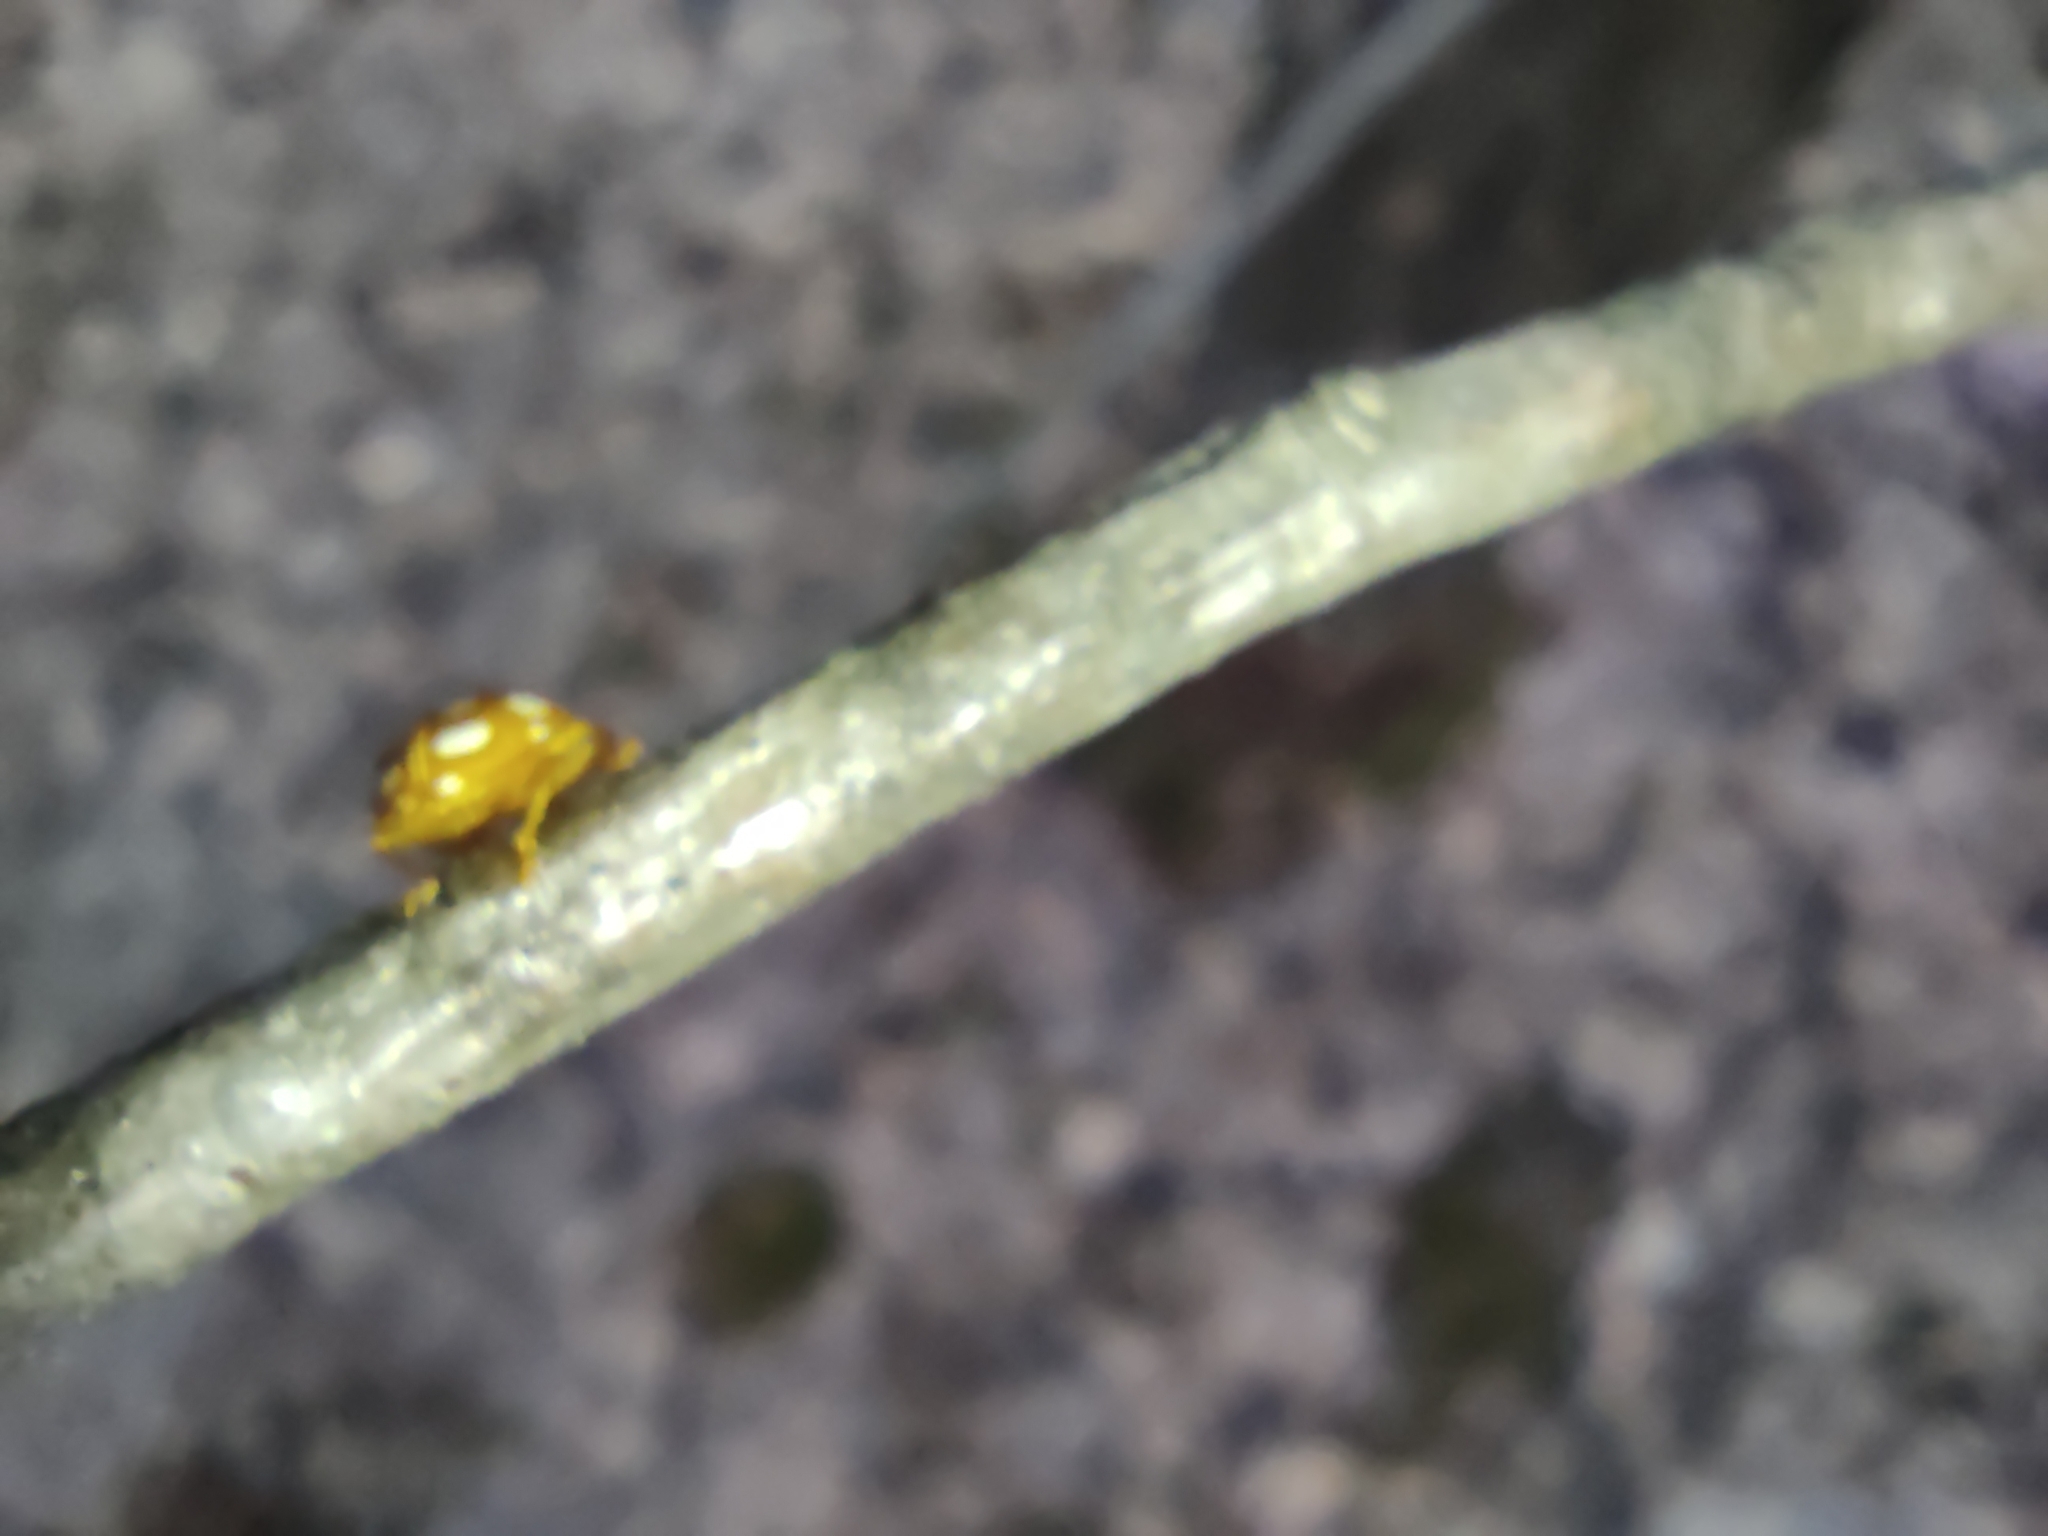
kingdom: Animalia
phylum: Arthropoda
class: Insecta
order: Coleoptera
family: Coccinellidae
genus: Halyzia
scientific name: Halyzia sedecimguttata
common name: Orange ladybird
